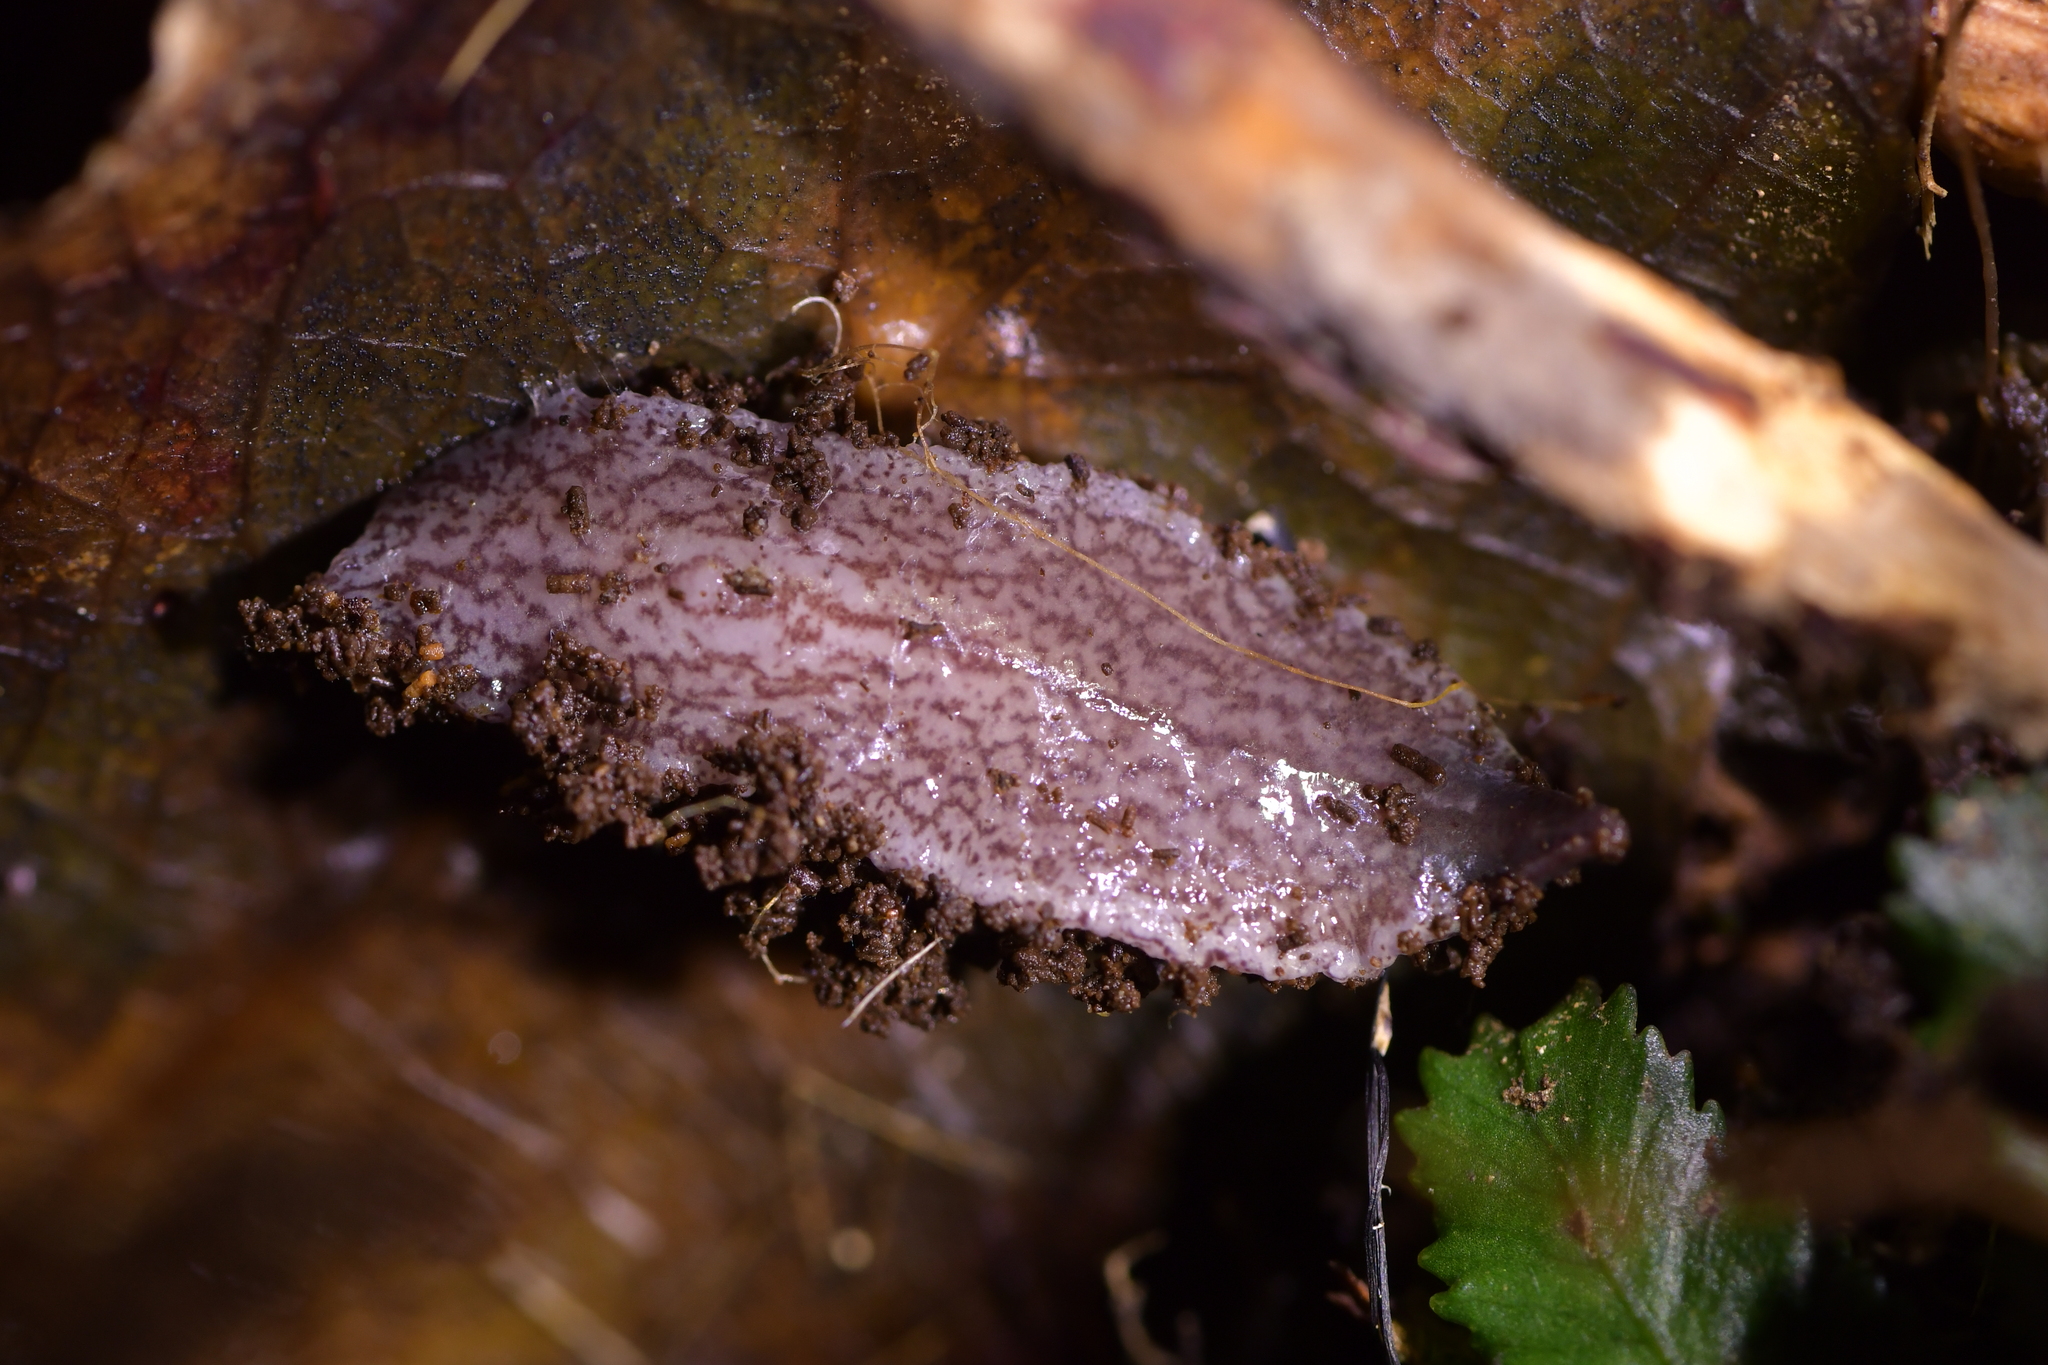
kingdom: Animalia
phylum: Platyhelminthes
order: Tricladida
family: Geoplanidae
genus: Artioposthia
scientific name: Artioposthia exulans
